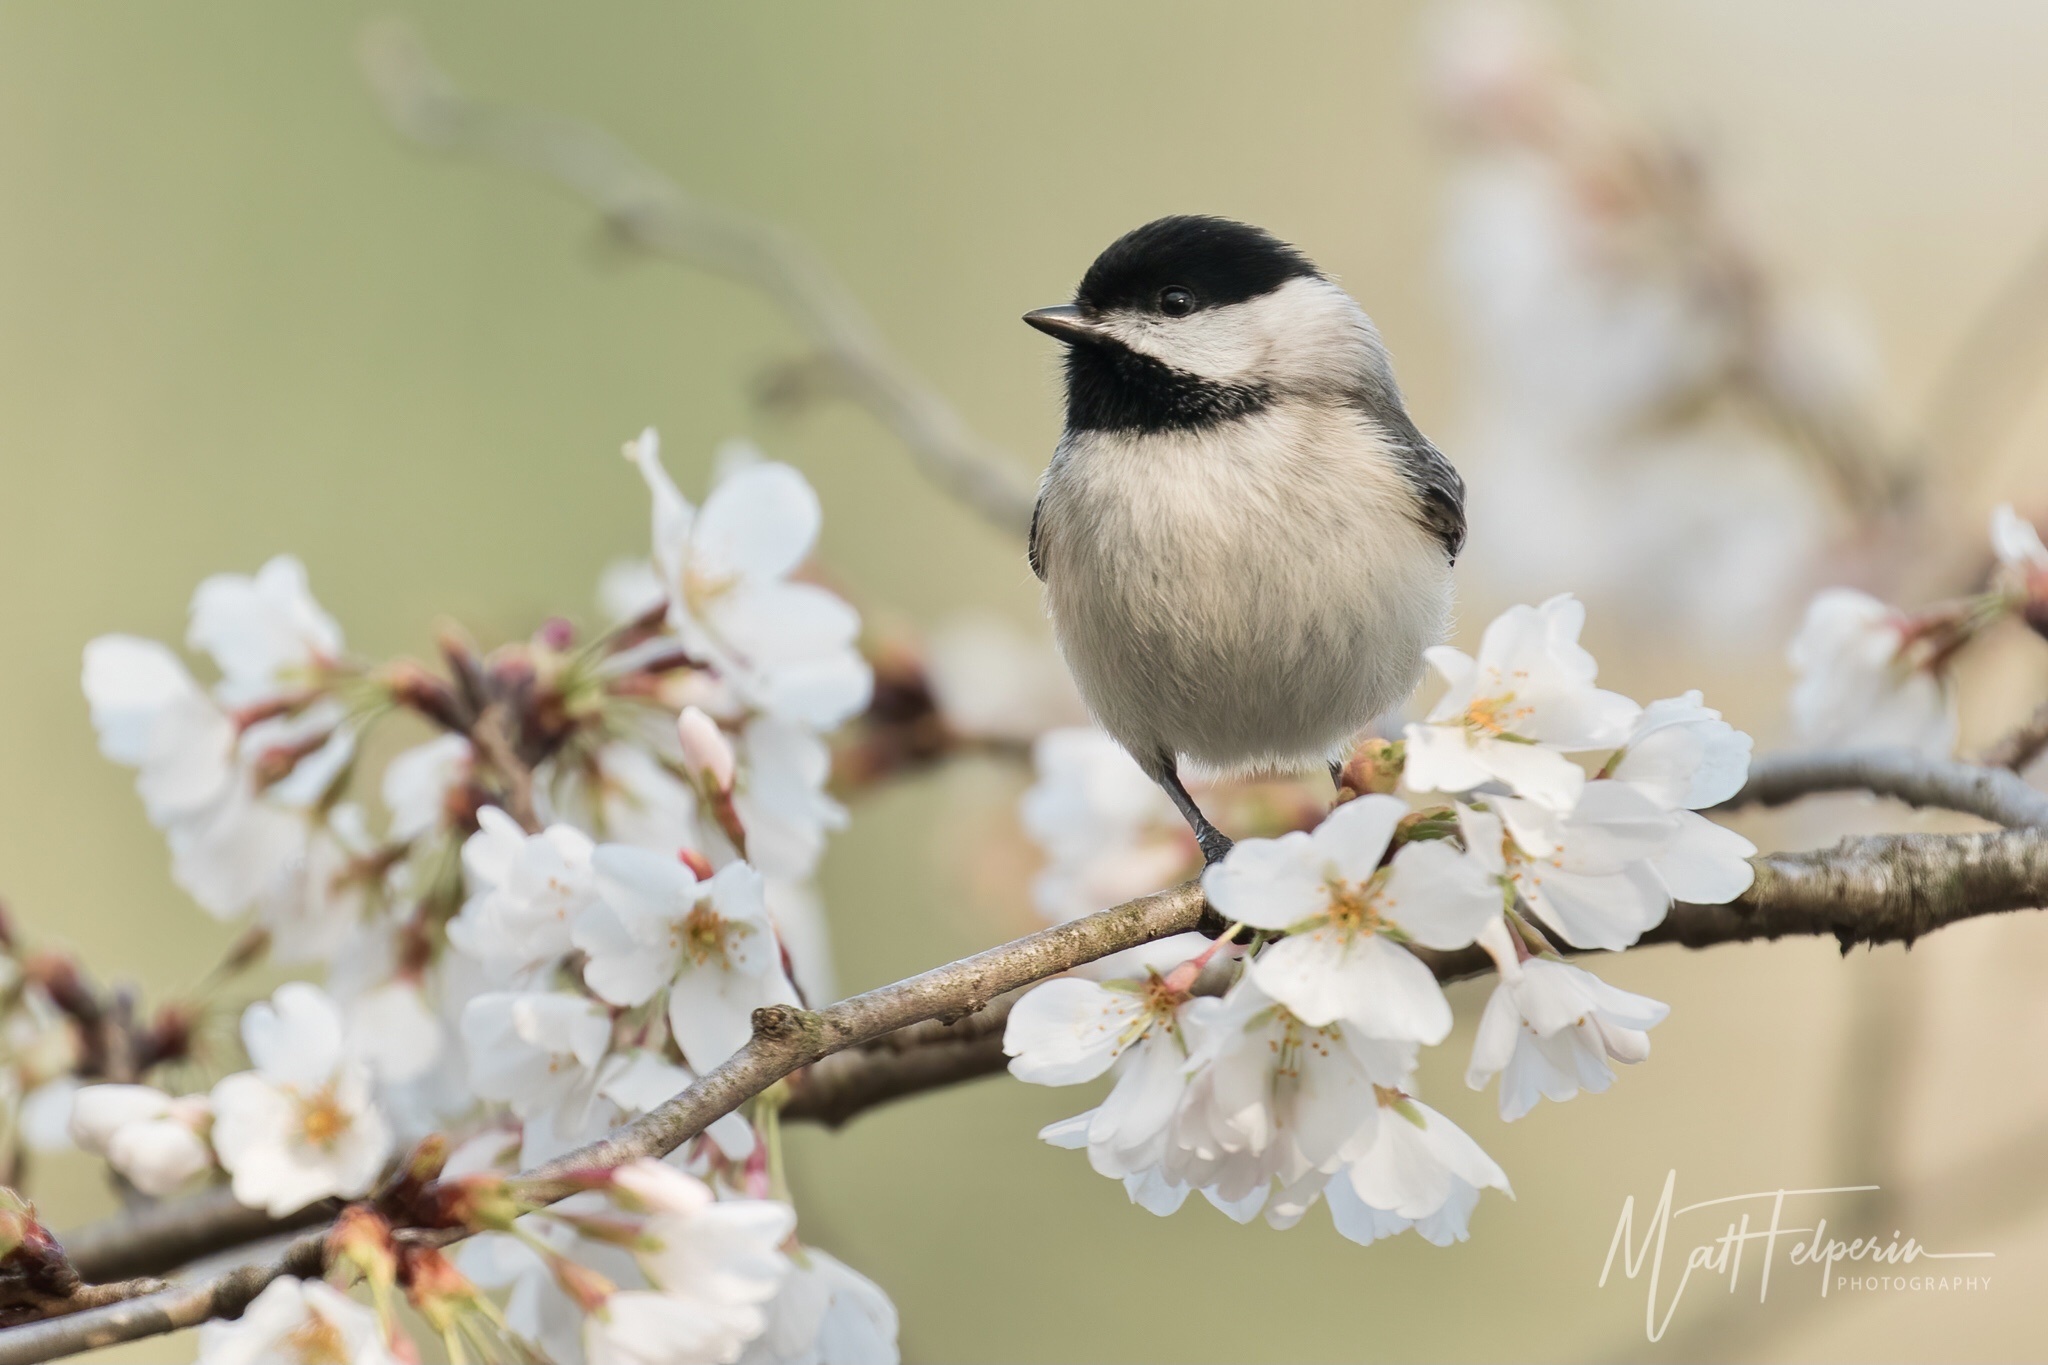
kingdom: Animalia
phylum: Chordata
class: Aves
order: Passeriformes
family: Paridae
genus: Poecile
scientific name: Poecile carolinensis
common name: Carolina chickadee
